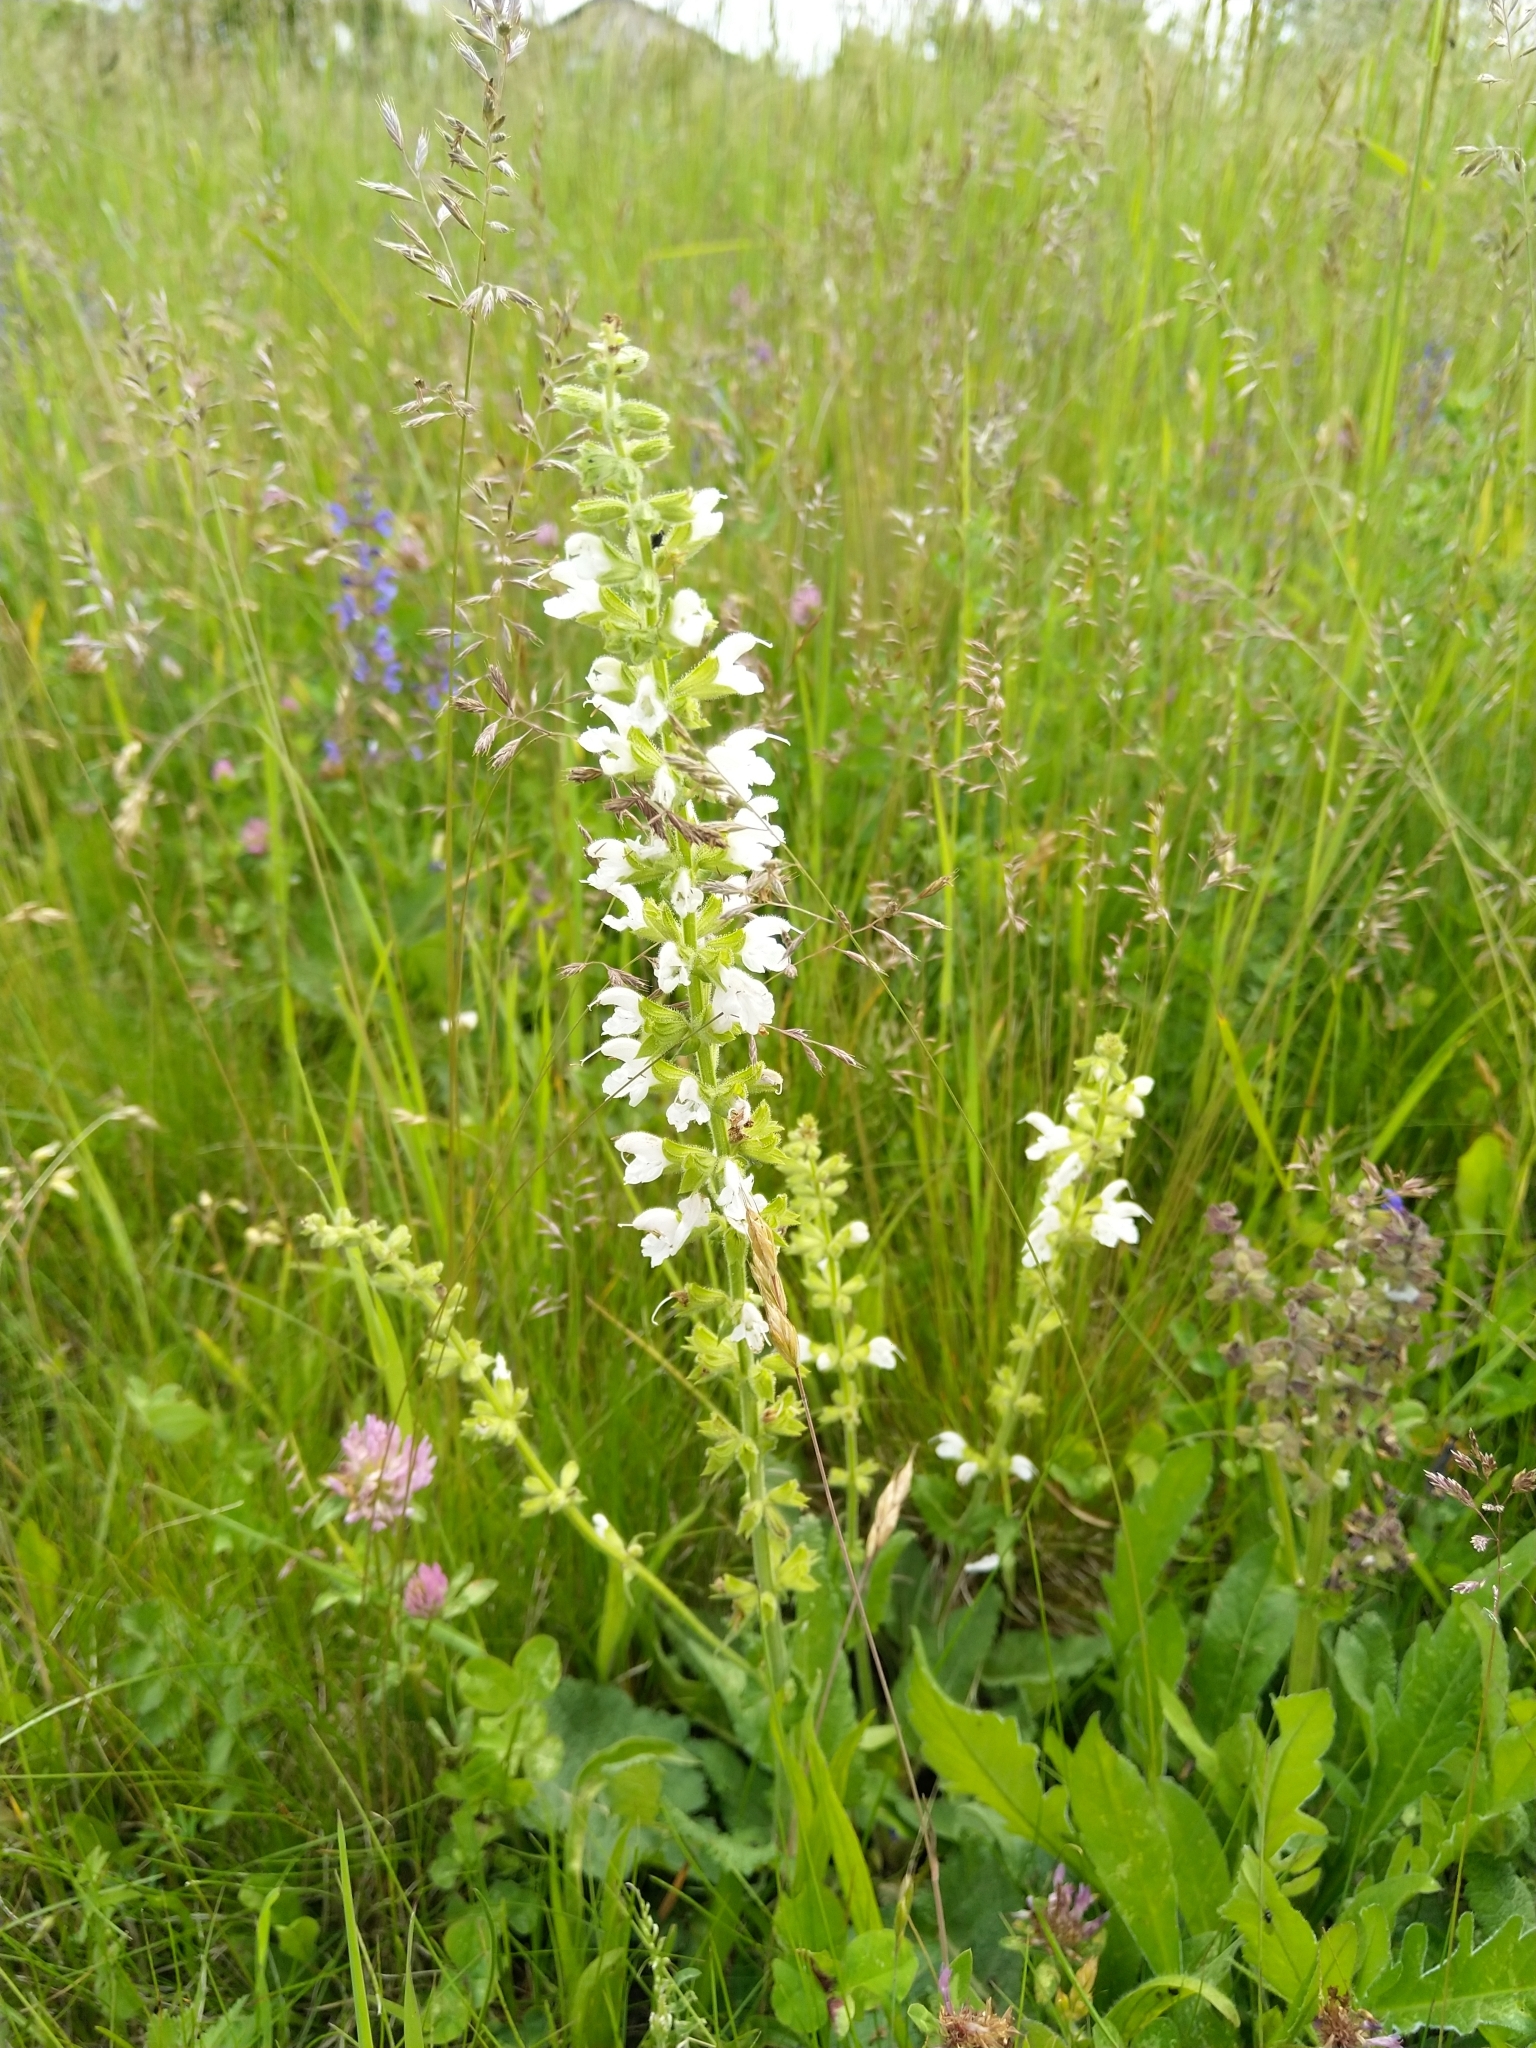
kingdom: Plantae
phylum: Tracheophyta
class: Magnoliopsida
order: Lamiales
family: Lamiaceae
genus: Salvia
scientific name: Salvia pratensis
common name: Meadow sage
